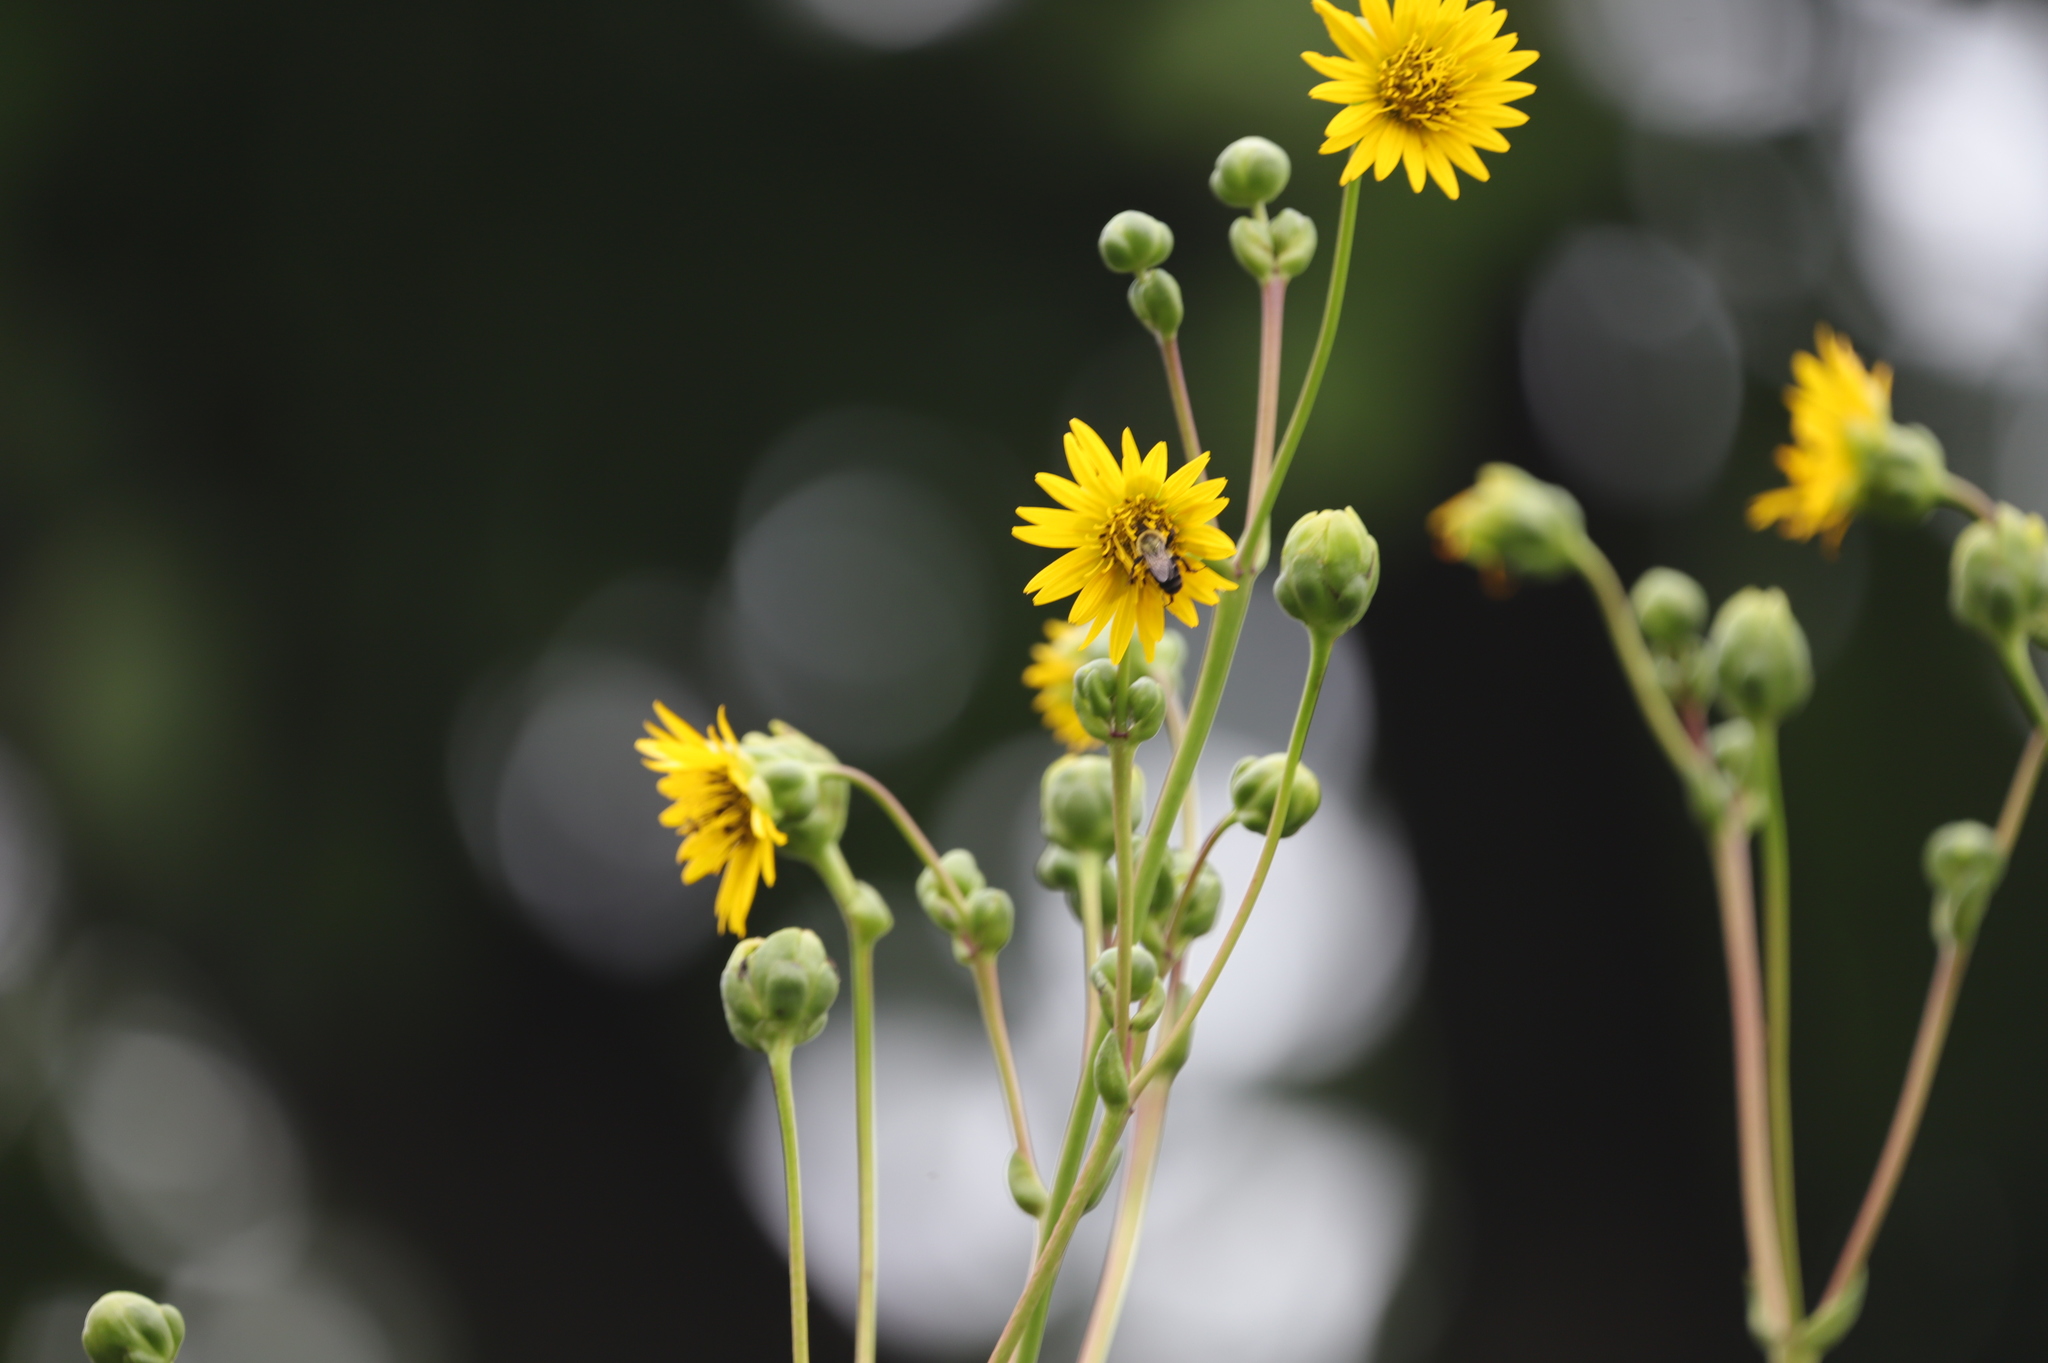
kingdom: Animalia
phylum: Arthropoda
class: Insecta
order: Hymenoptera
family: Apidae
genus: Bombus
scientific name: Bombus impatiens
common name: Common eastern bumble bee
